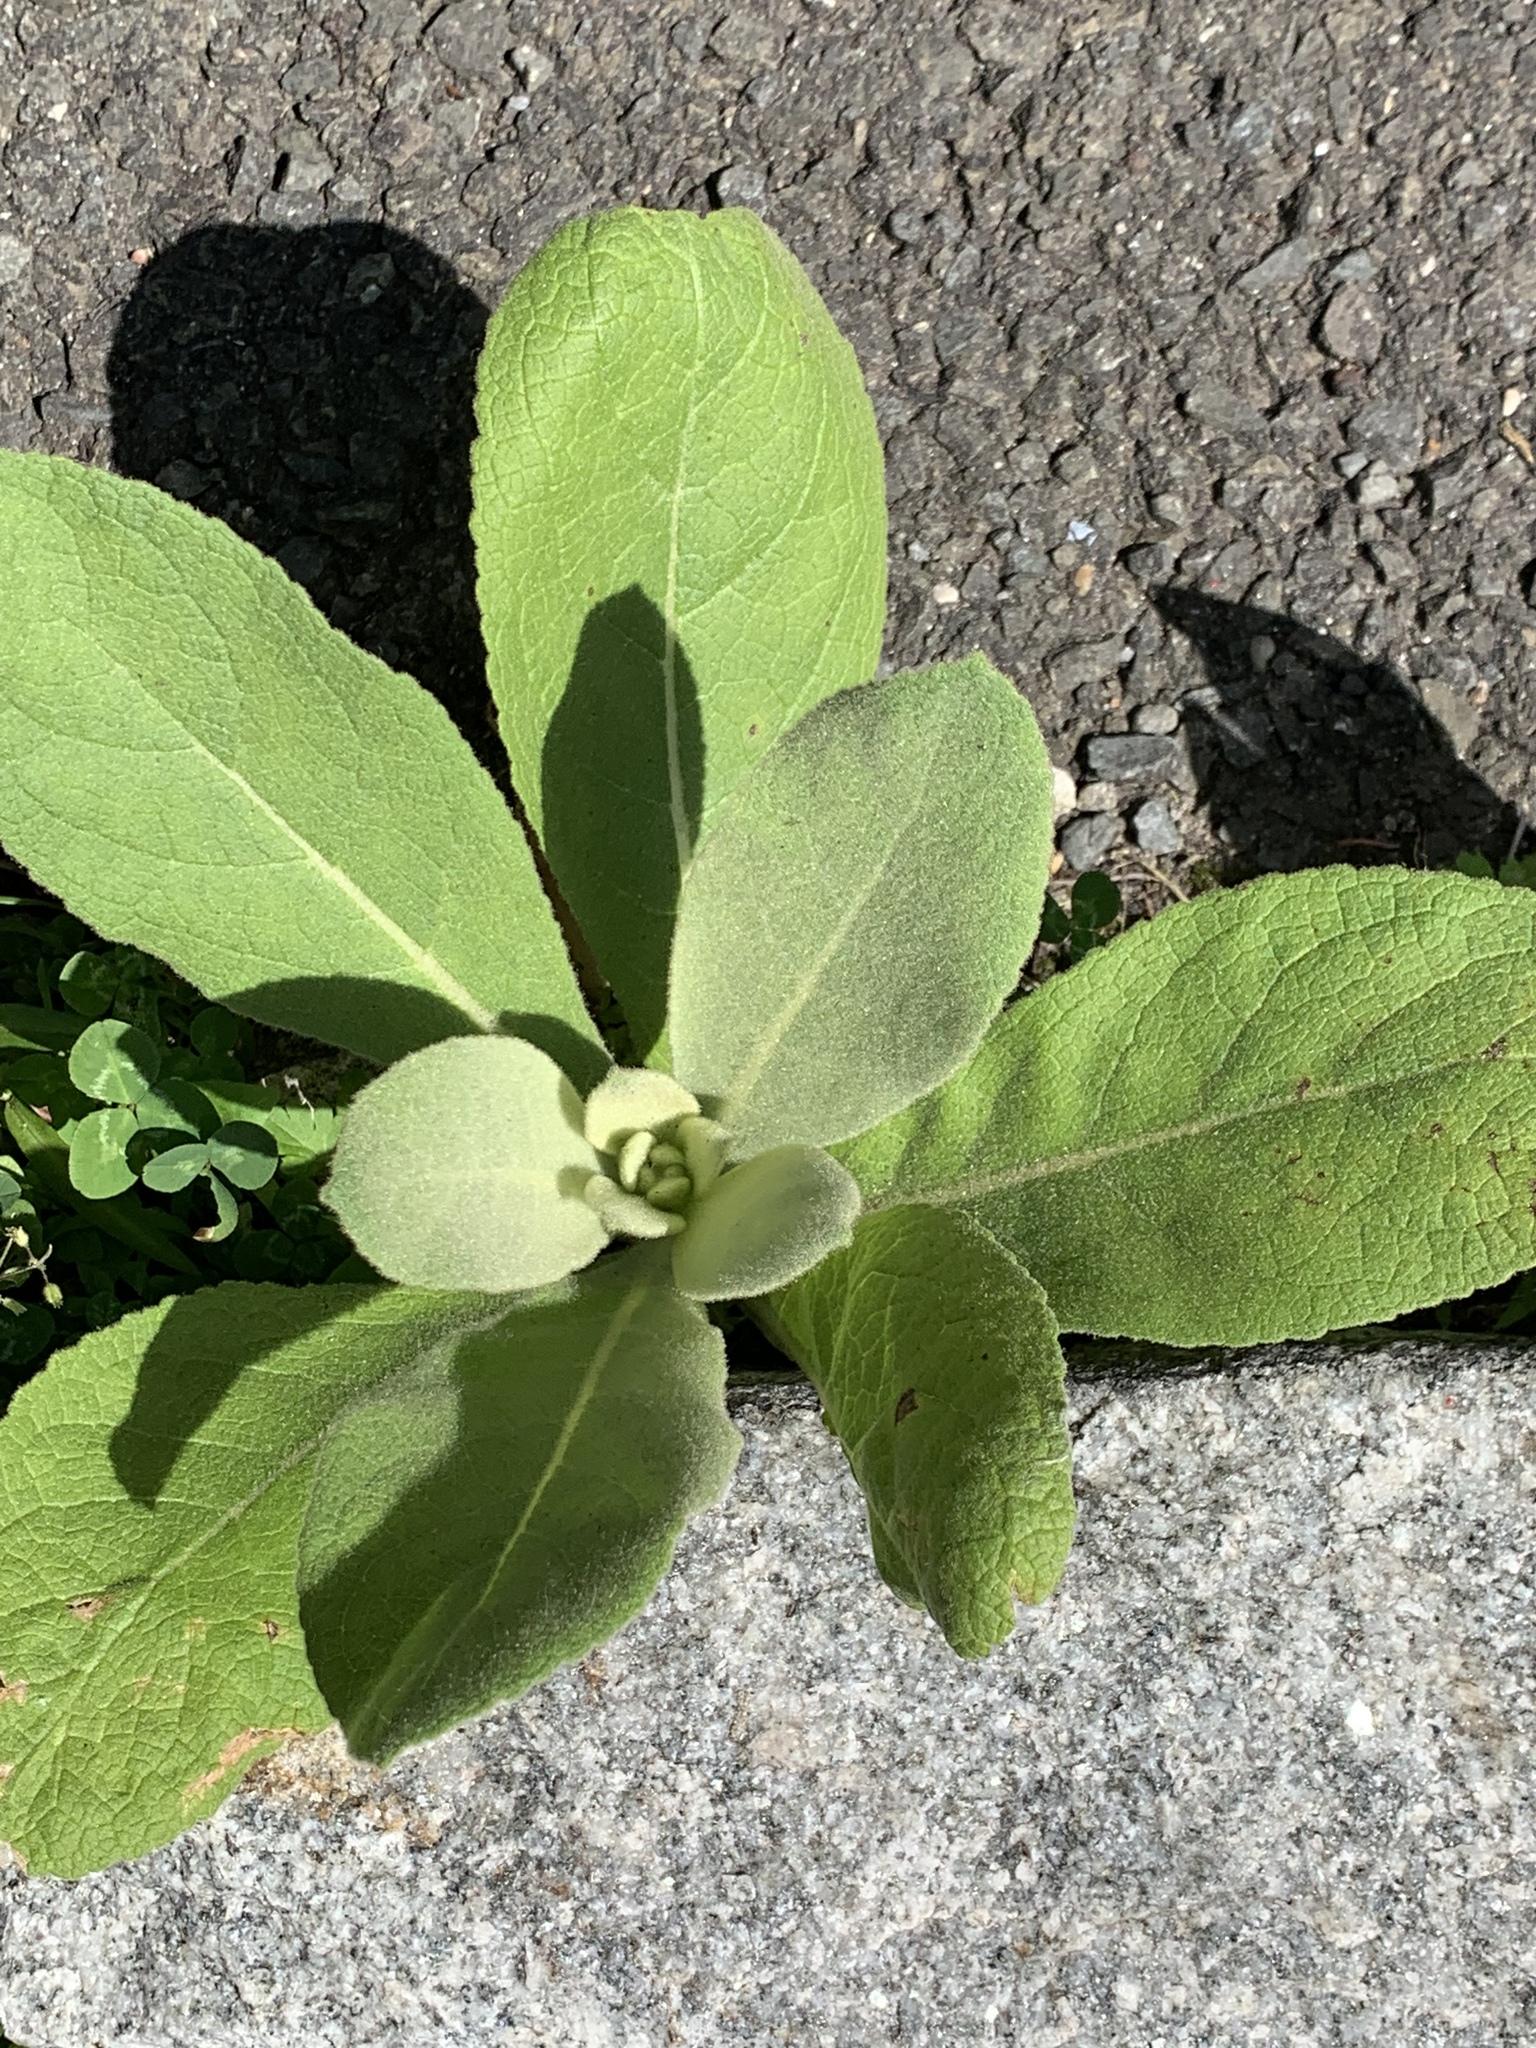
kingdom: Plantae
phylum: Tracheophyta
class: Magnoliopsida
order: Lamiales
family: Scrophulariaceae
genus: Verbascum
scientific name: Verbascum thapsus
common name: Common mullein
